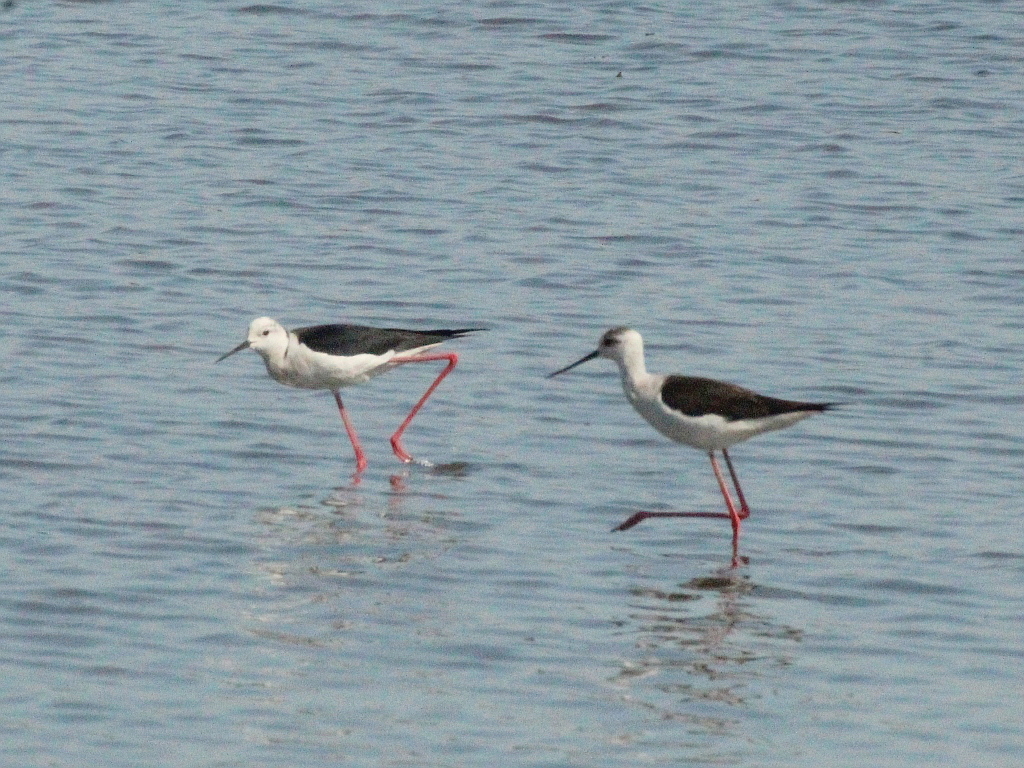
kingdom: Animalia
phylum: Chordata
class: Aves
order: Charadriiformes
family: Recurvirostridae
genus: Himantopus
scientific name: Himantopus himantopus
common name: Black-winged stilt
